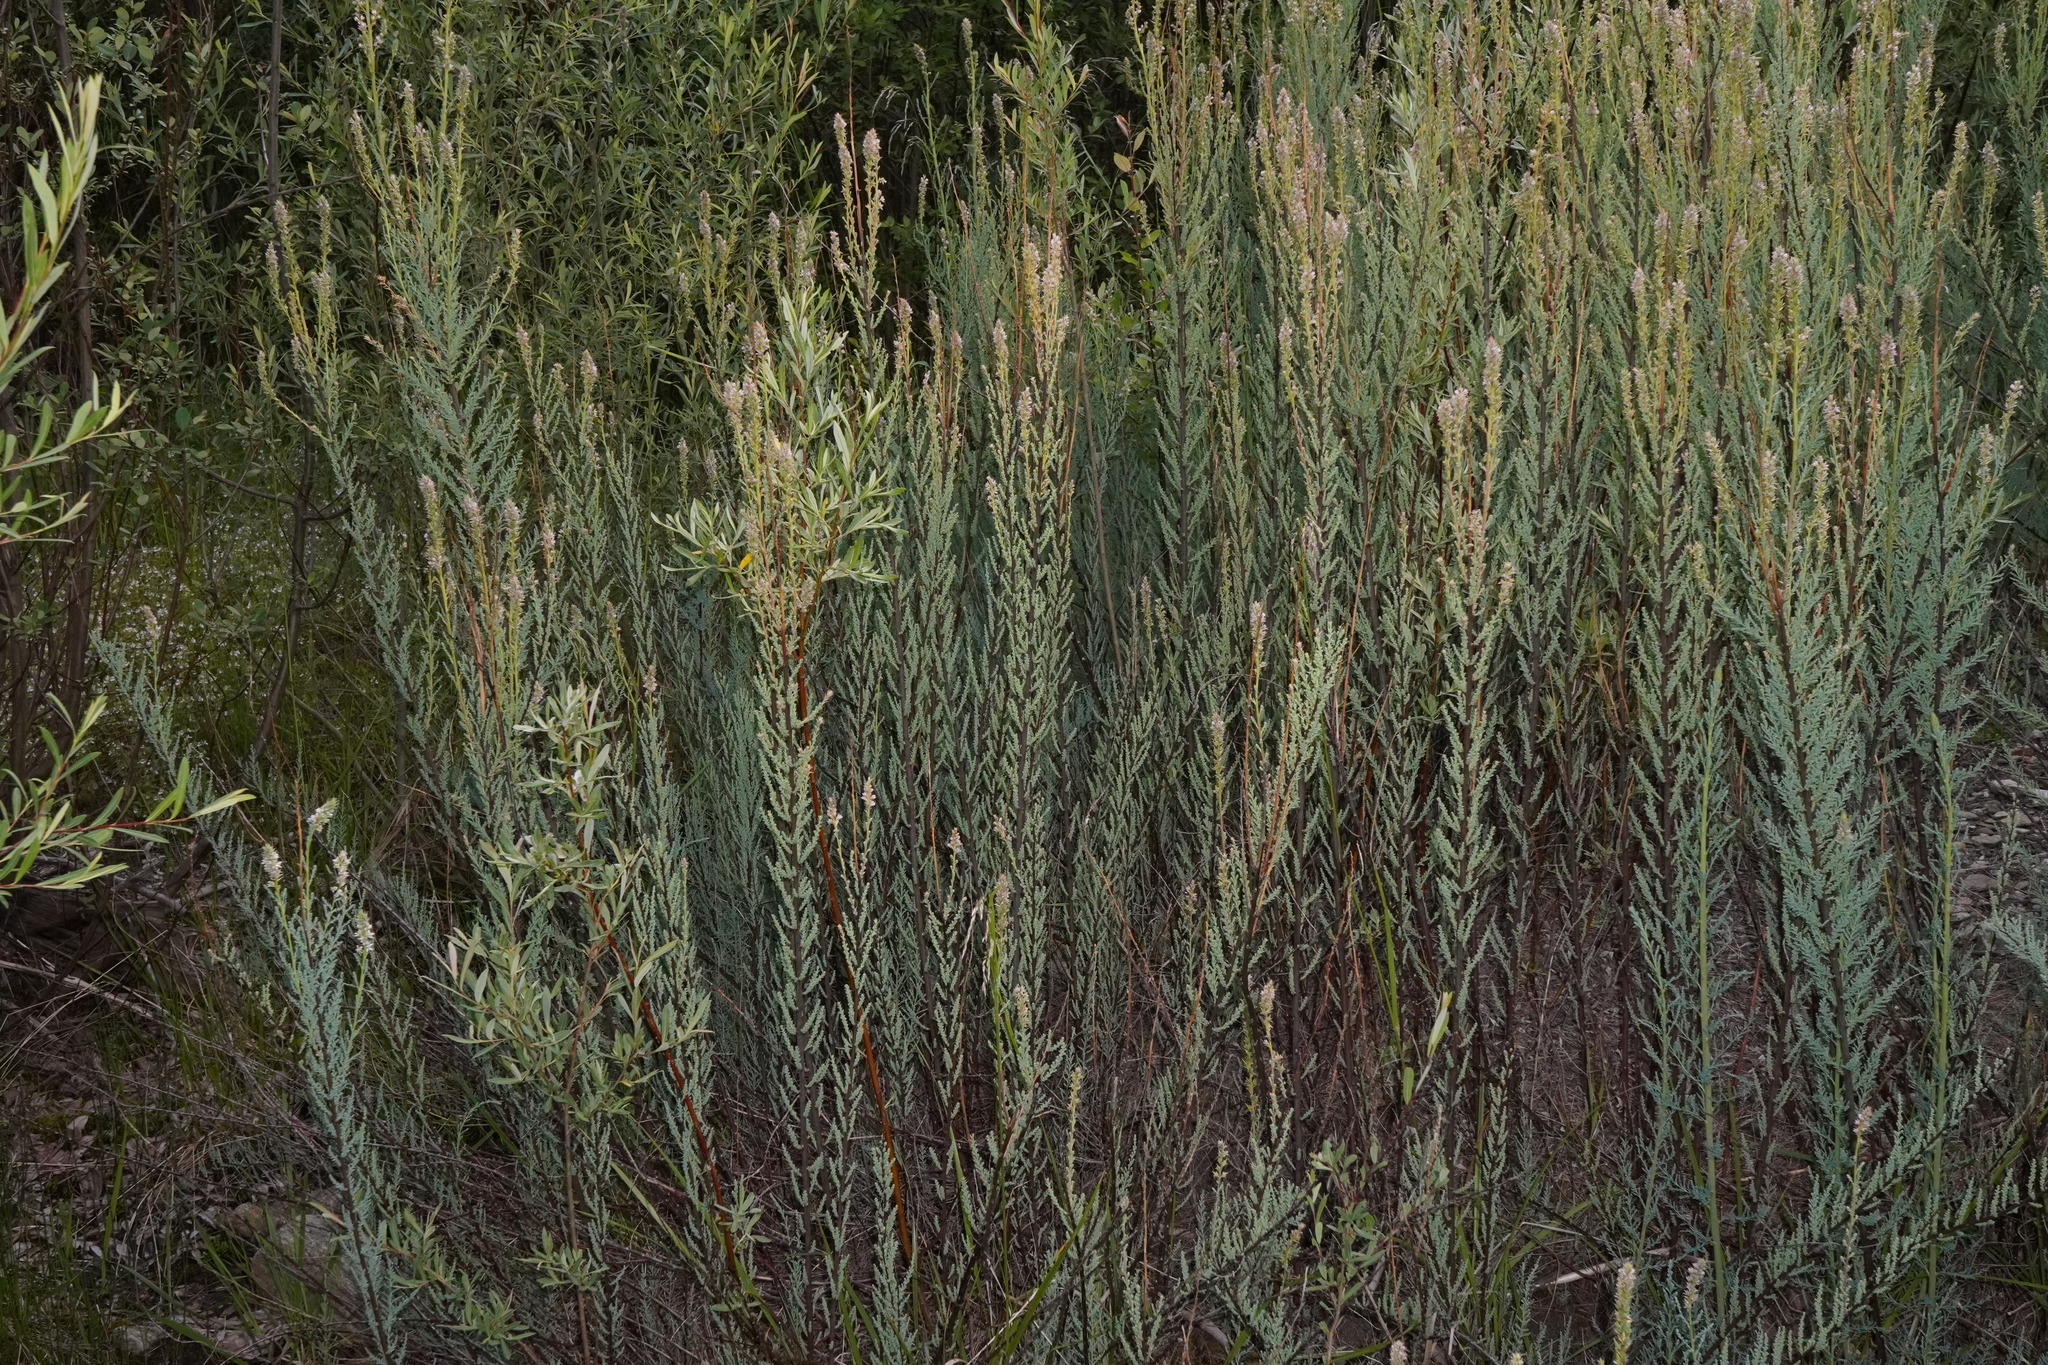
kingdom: Plantae
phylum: Tracheophyta
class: Magnoliopsida
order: Caryophyllales
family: Tamaricaceae
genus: Myricaria
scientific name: Myricaria germanica
